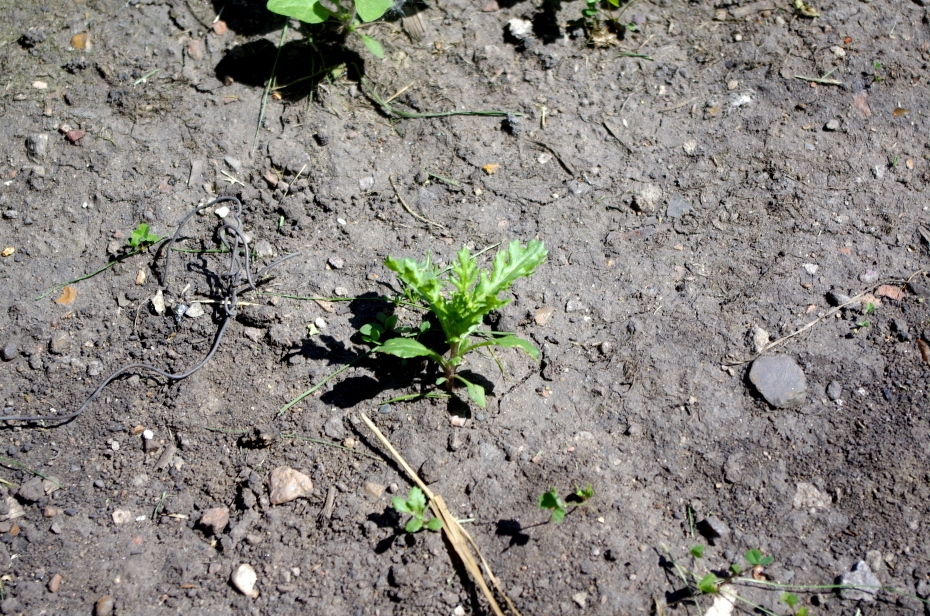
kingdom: Plantae
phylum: Tracheophyta
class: Magnoliopsida
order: Asterales
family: Asteraceae
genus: Senecio
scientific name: Senecio vulgaris
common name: Old-man-in-the-spring
